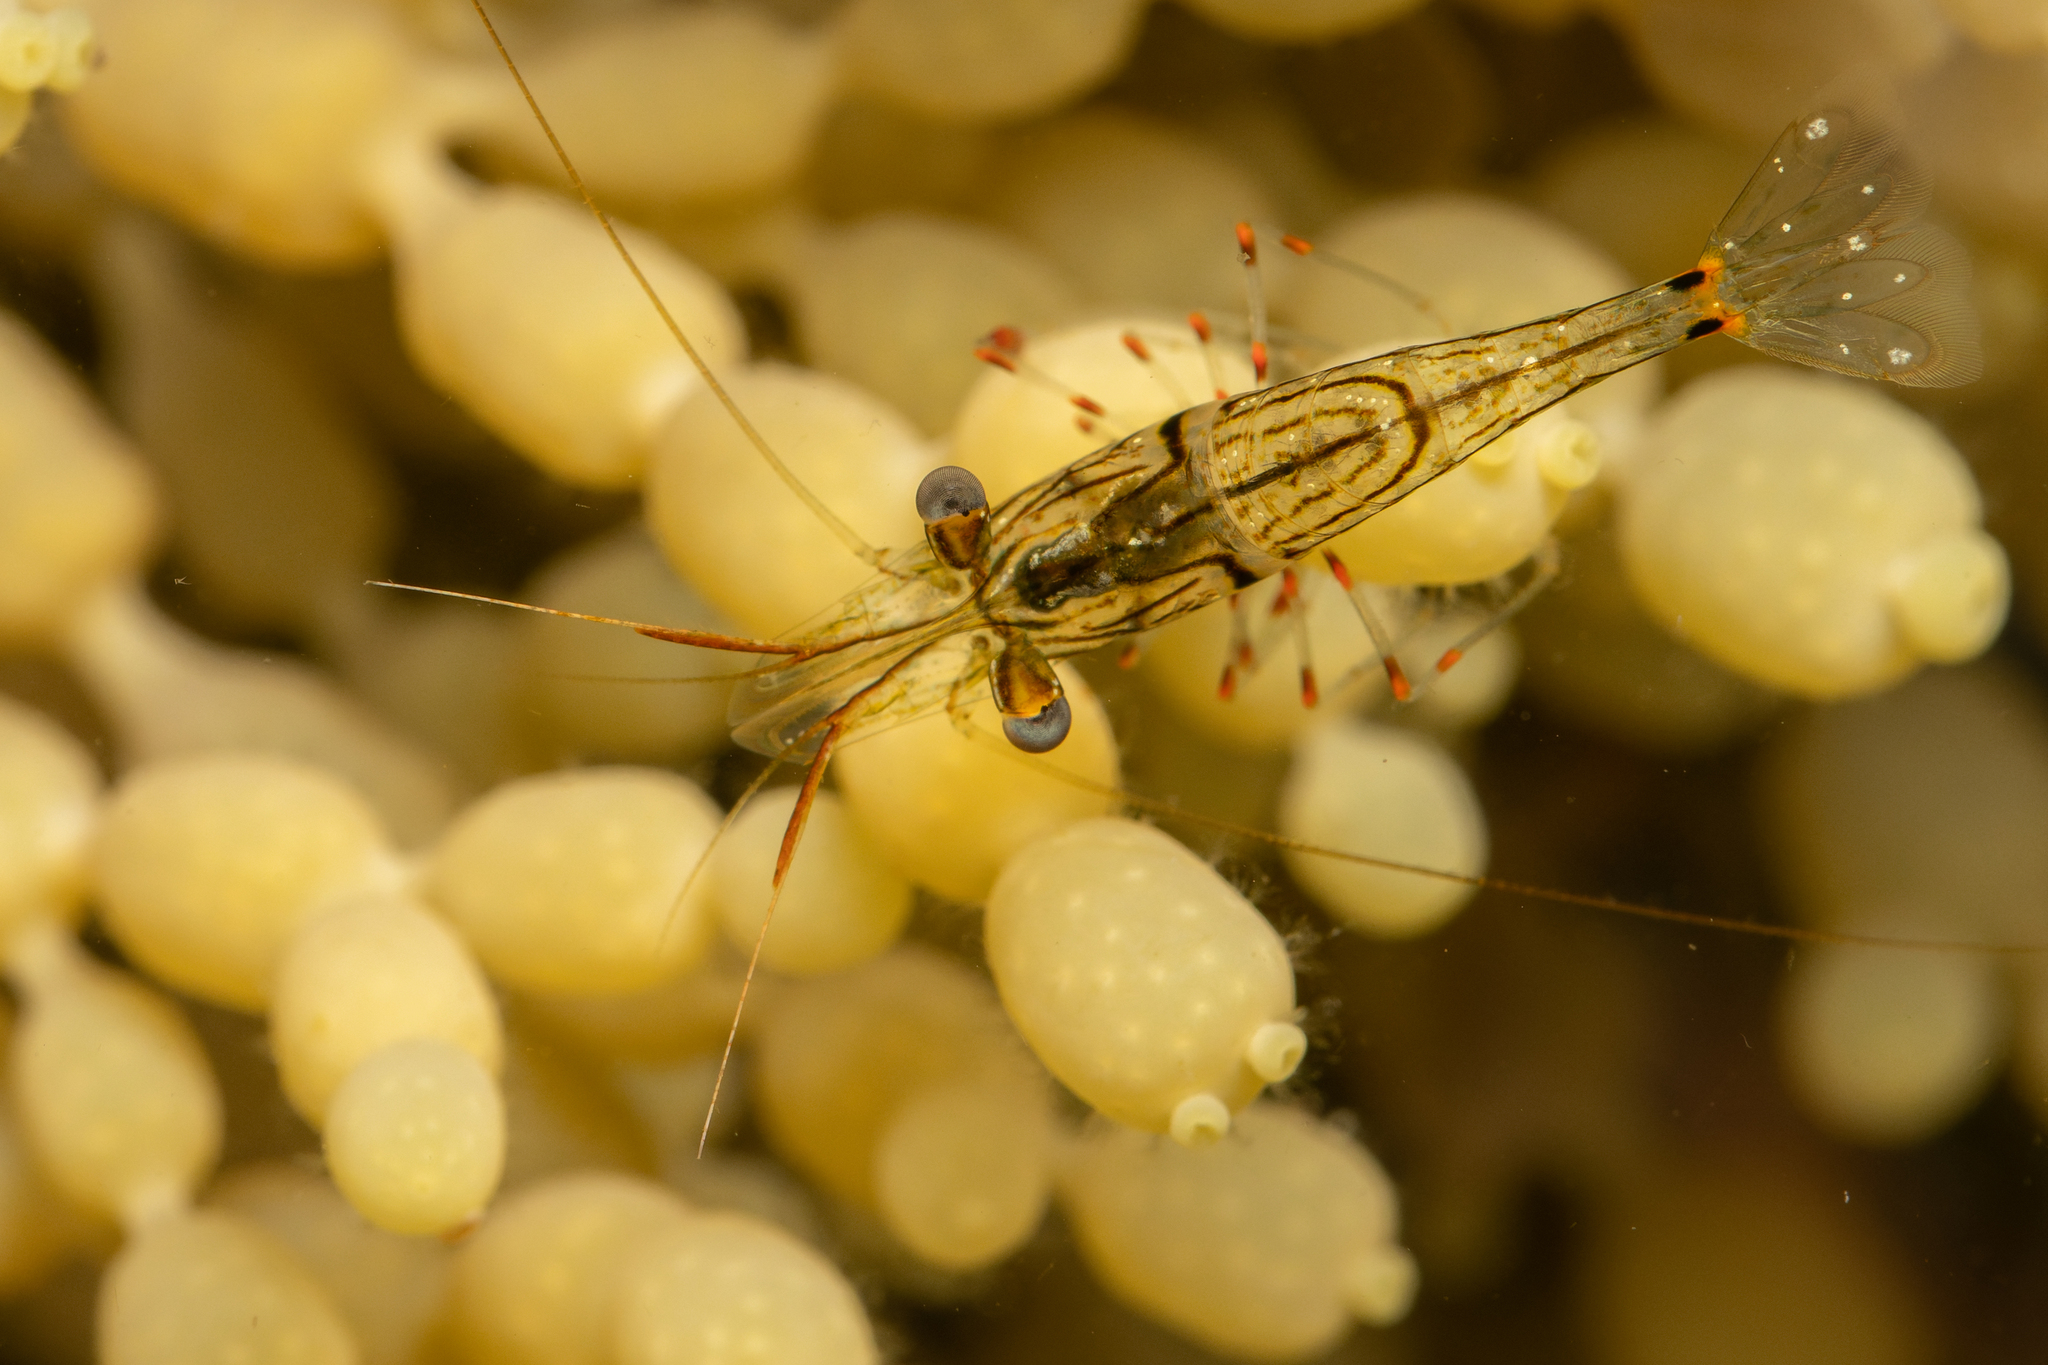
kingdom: Animalia
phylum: Arthropoda
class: Malacostraca
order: Decapoda
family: Palaemonidae
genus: Palaemon
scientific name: Palaemon affinis
